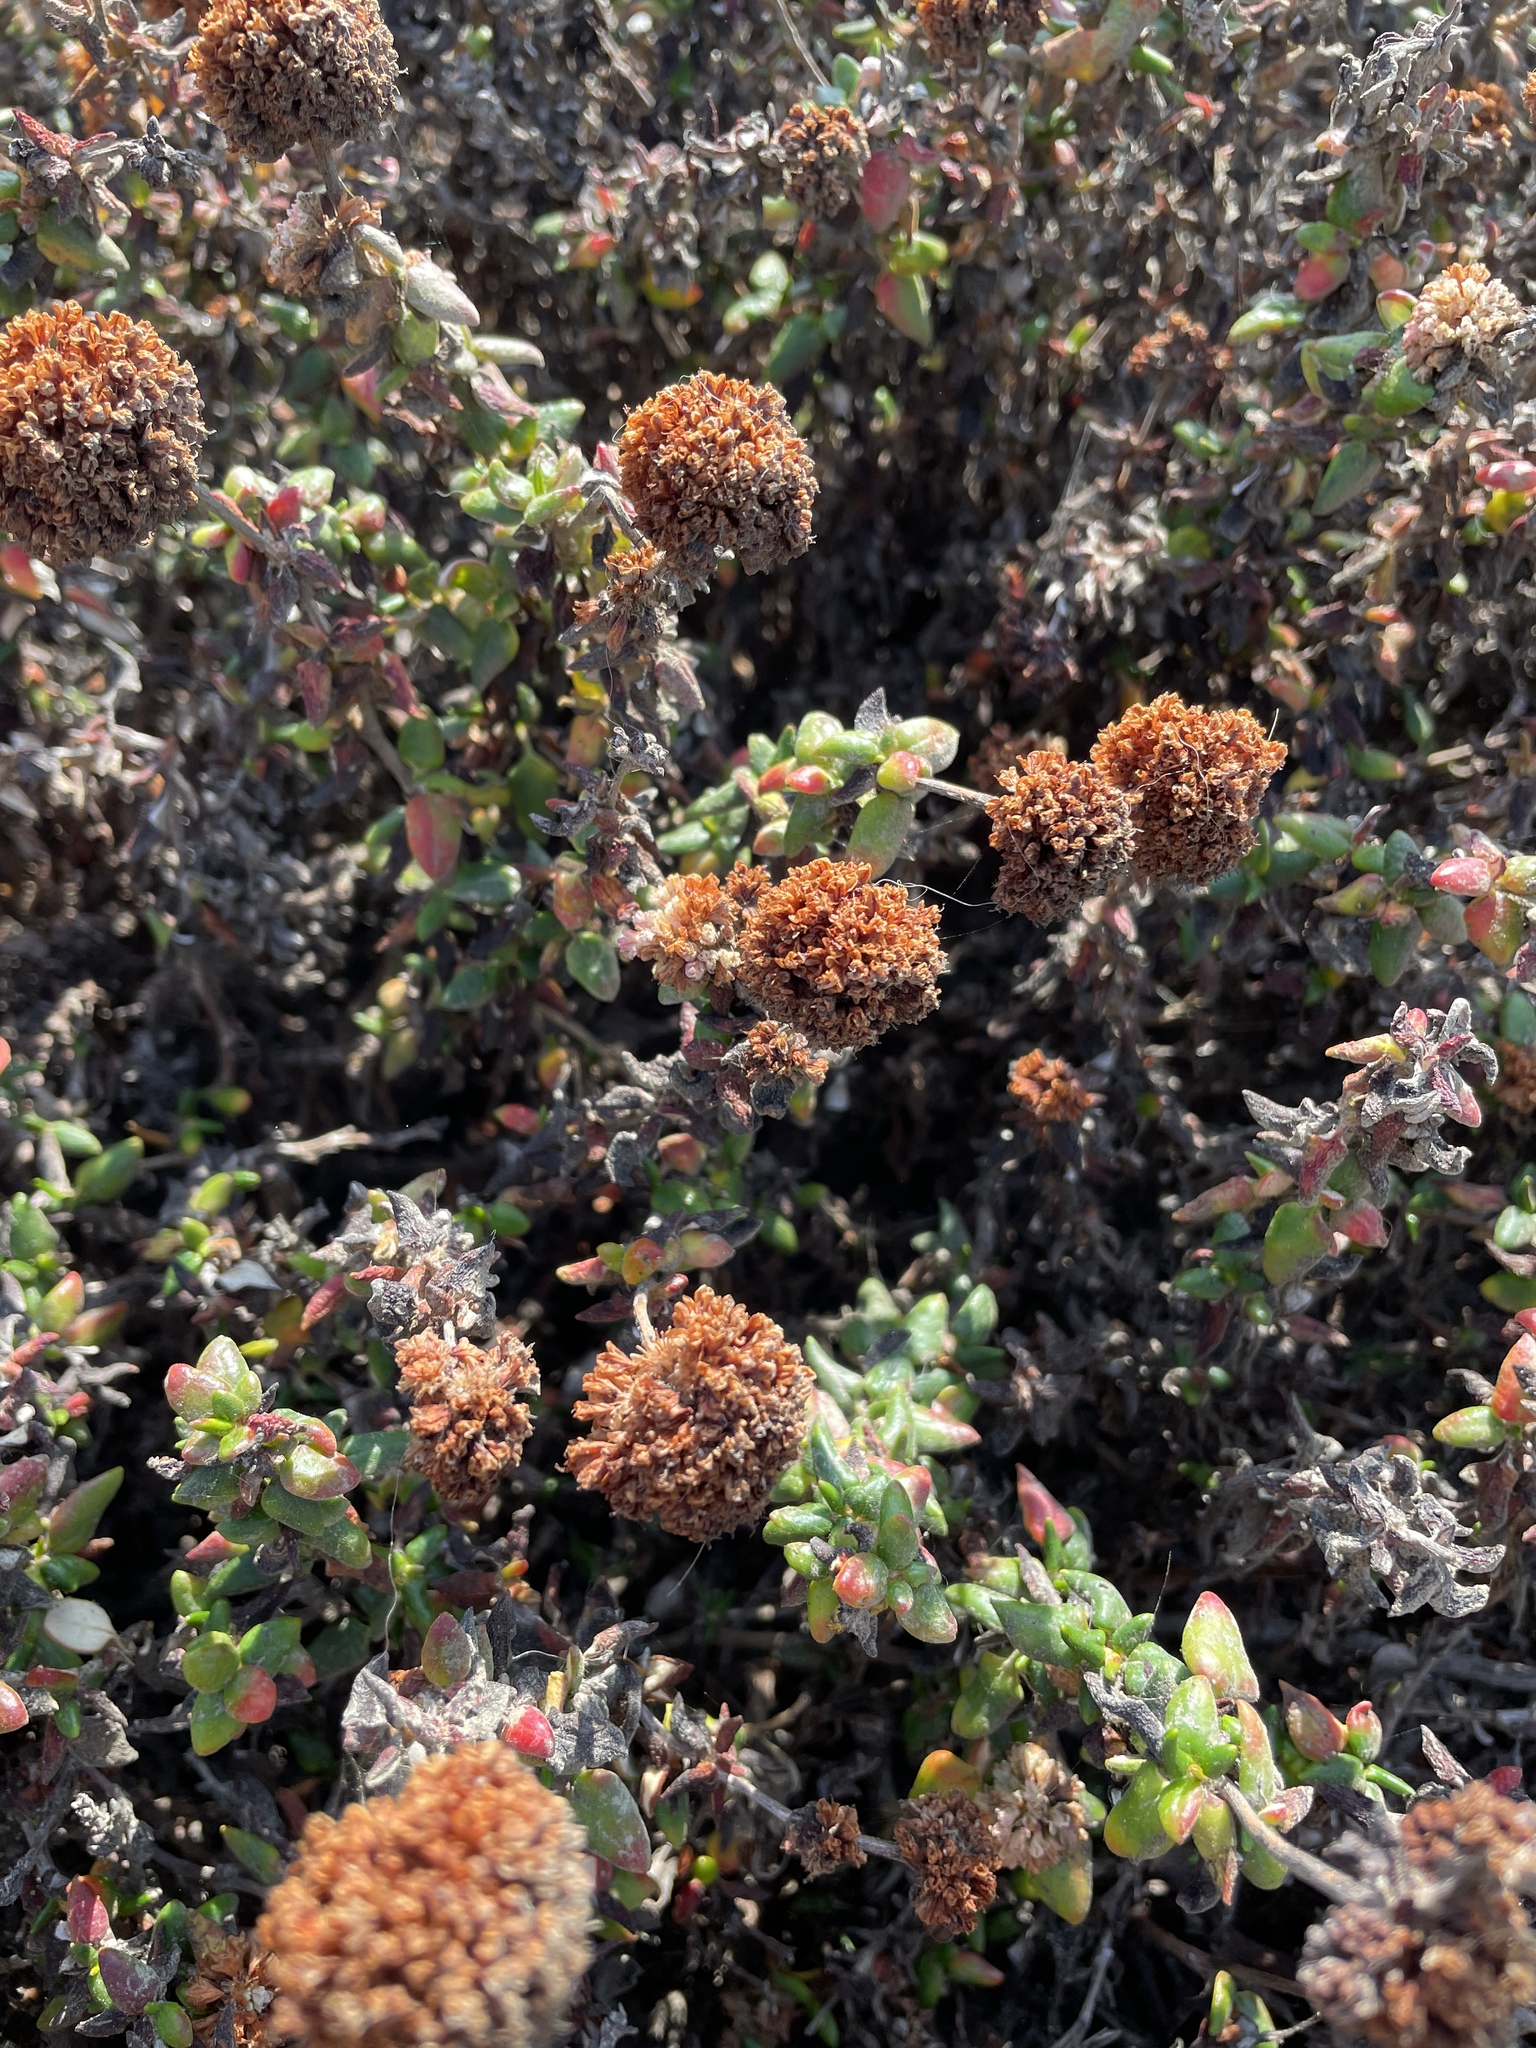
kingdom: Plantae
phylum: Tracheophyta
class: Magnoliopsida
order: Caryophyllales
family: Polygonaceae
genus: Eriogonum
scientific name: Eriogonum parvifolium
